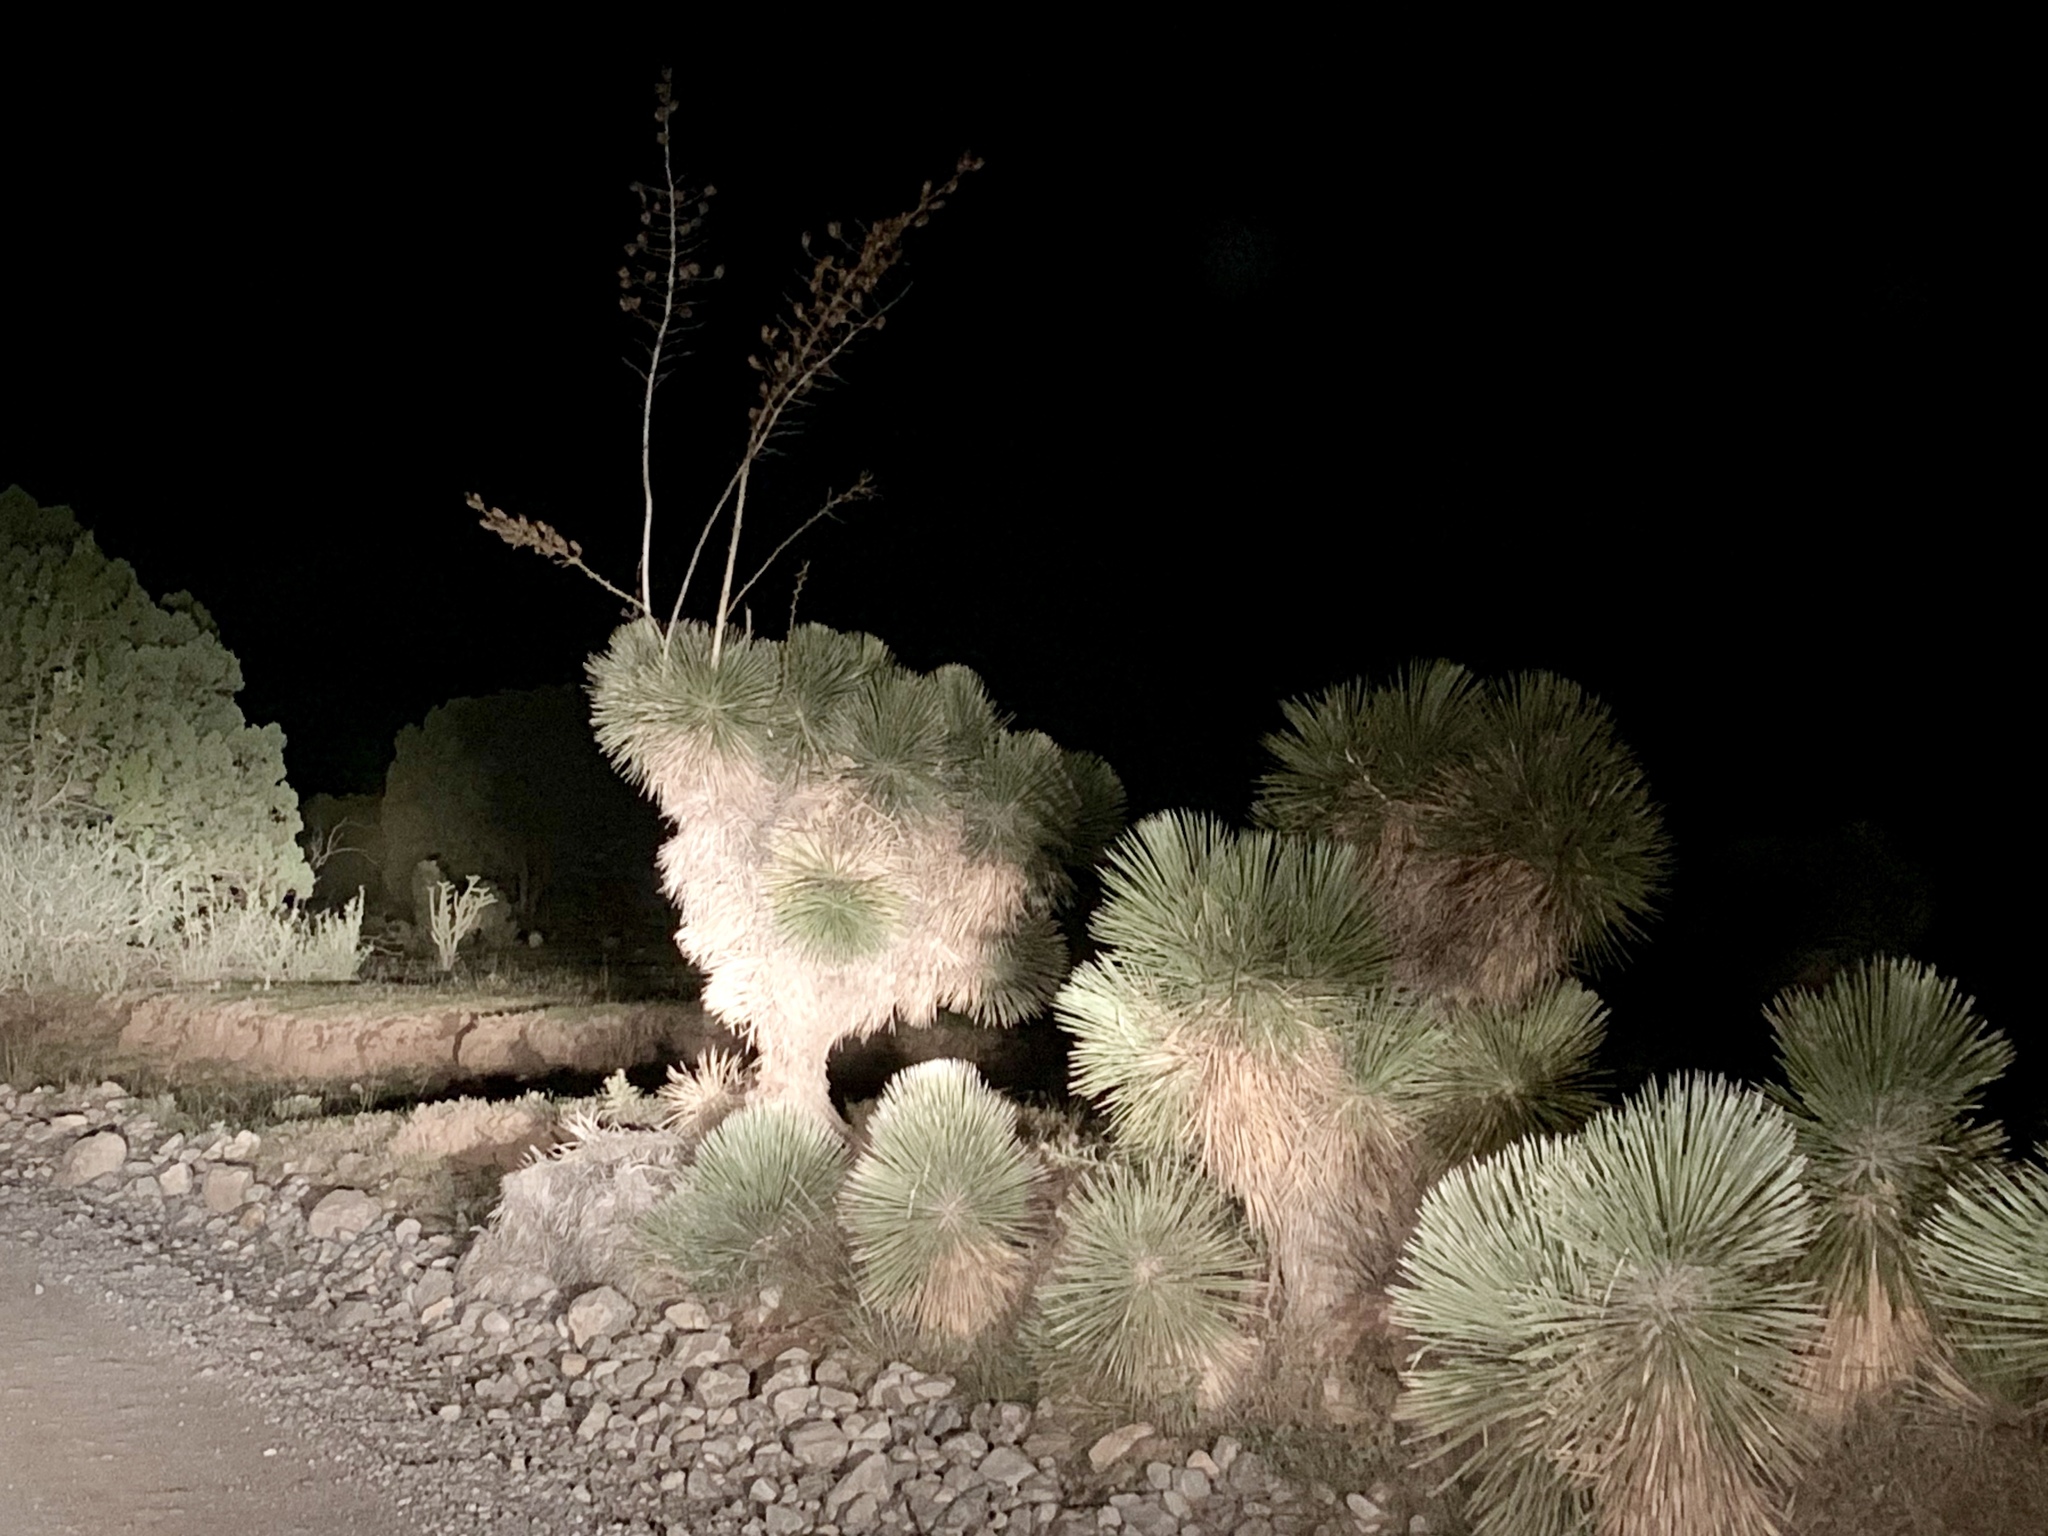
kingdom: Plantae
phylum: Tracheophyta
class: Liliopsida
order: Asparagales
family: Asparagaceae
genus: Yucca
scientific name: Yucca elata
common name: Palmella
